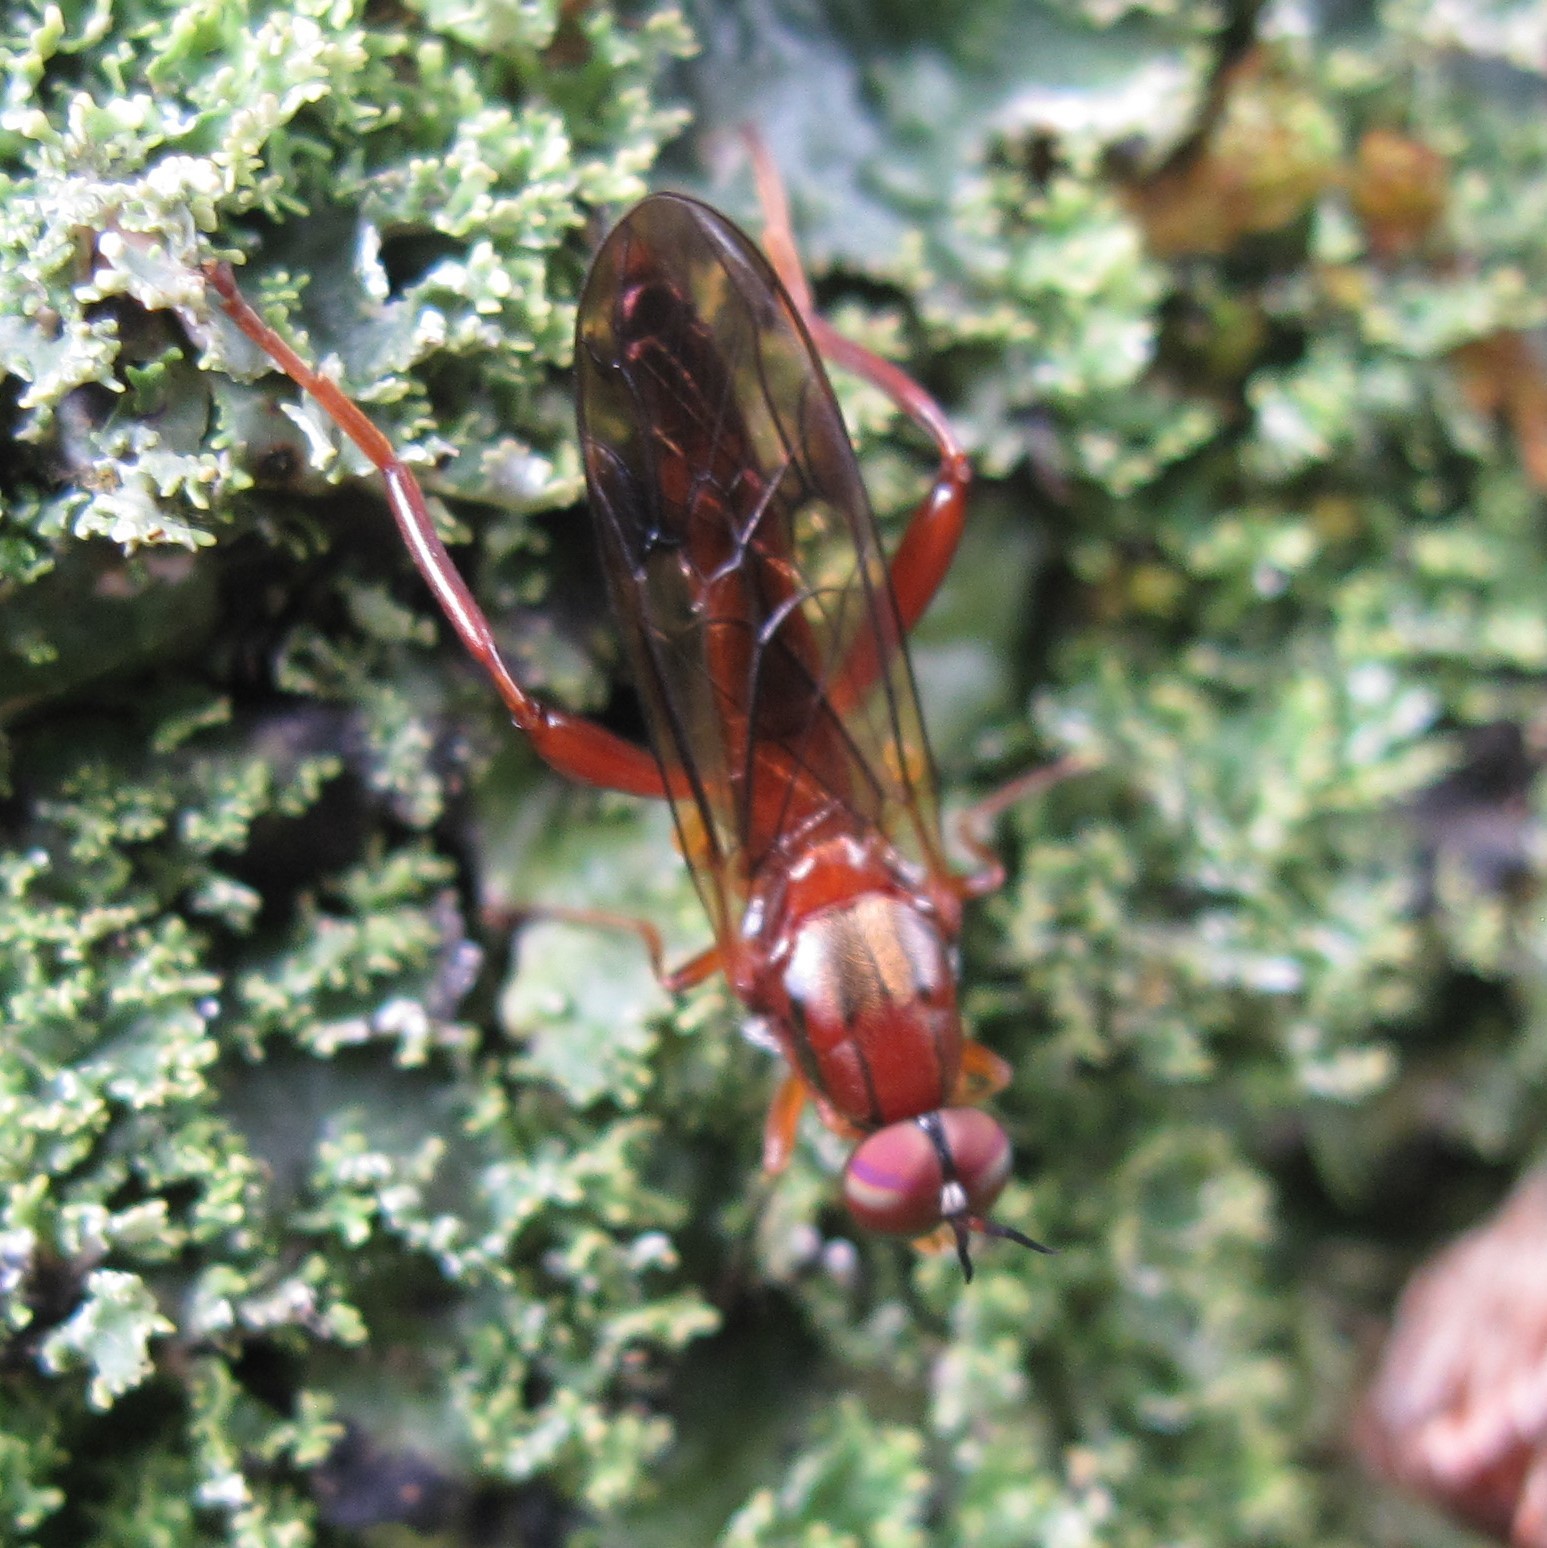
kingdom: Animalia
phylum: Arthropoda
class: Insecta
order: Diptera
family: Stratiomyidae
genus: Benhamyia
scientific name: Benhamyia straznitzkii
